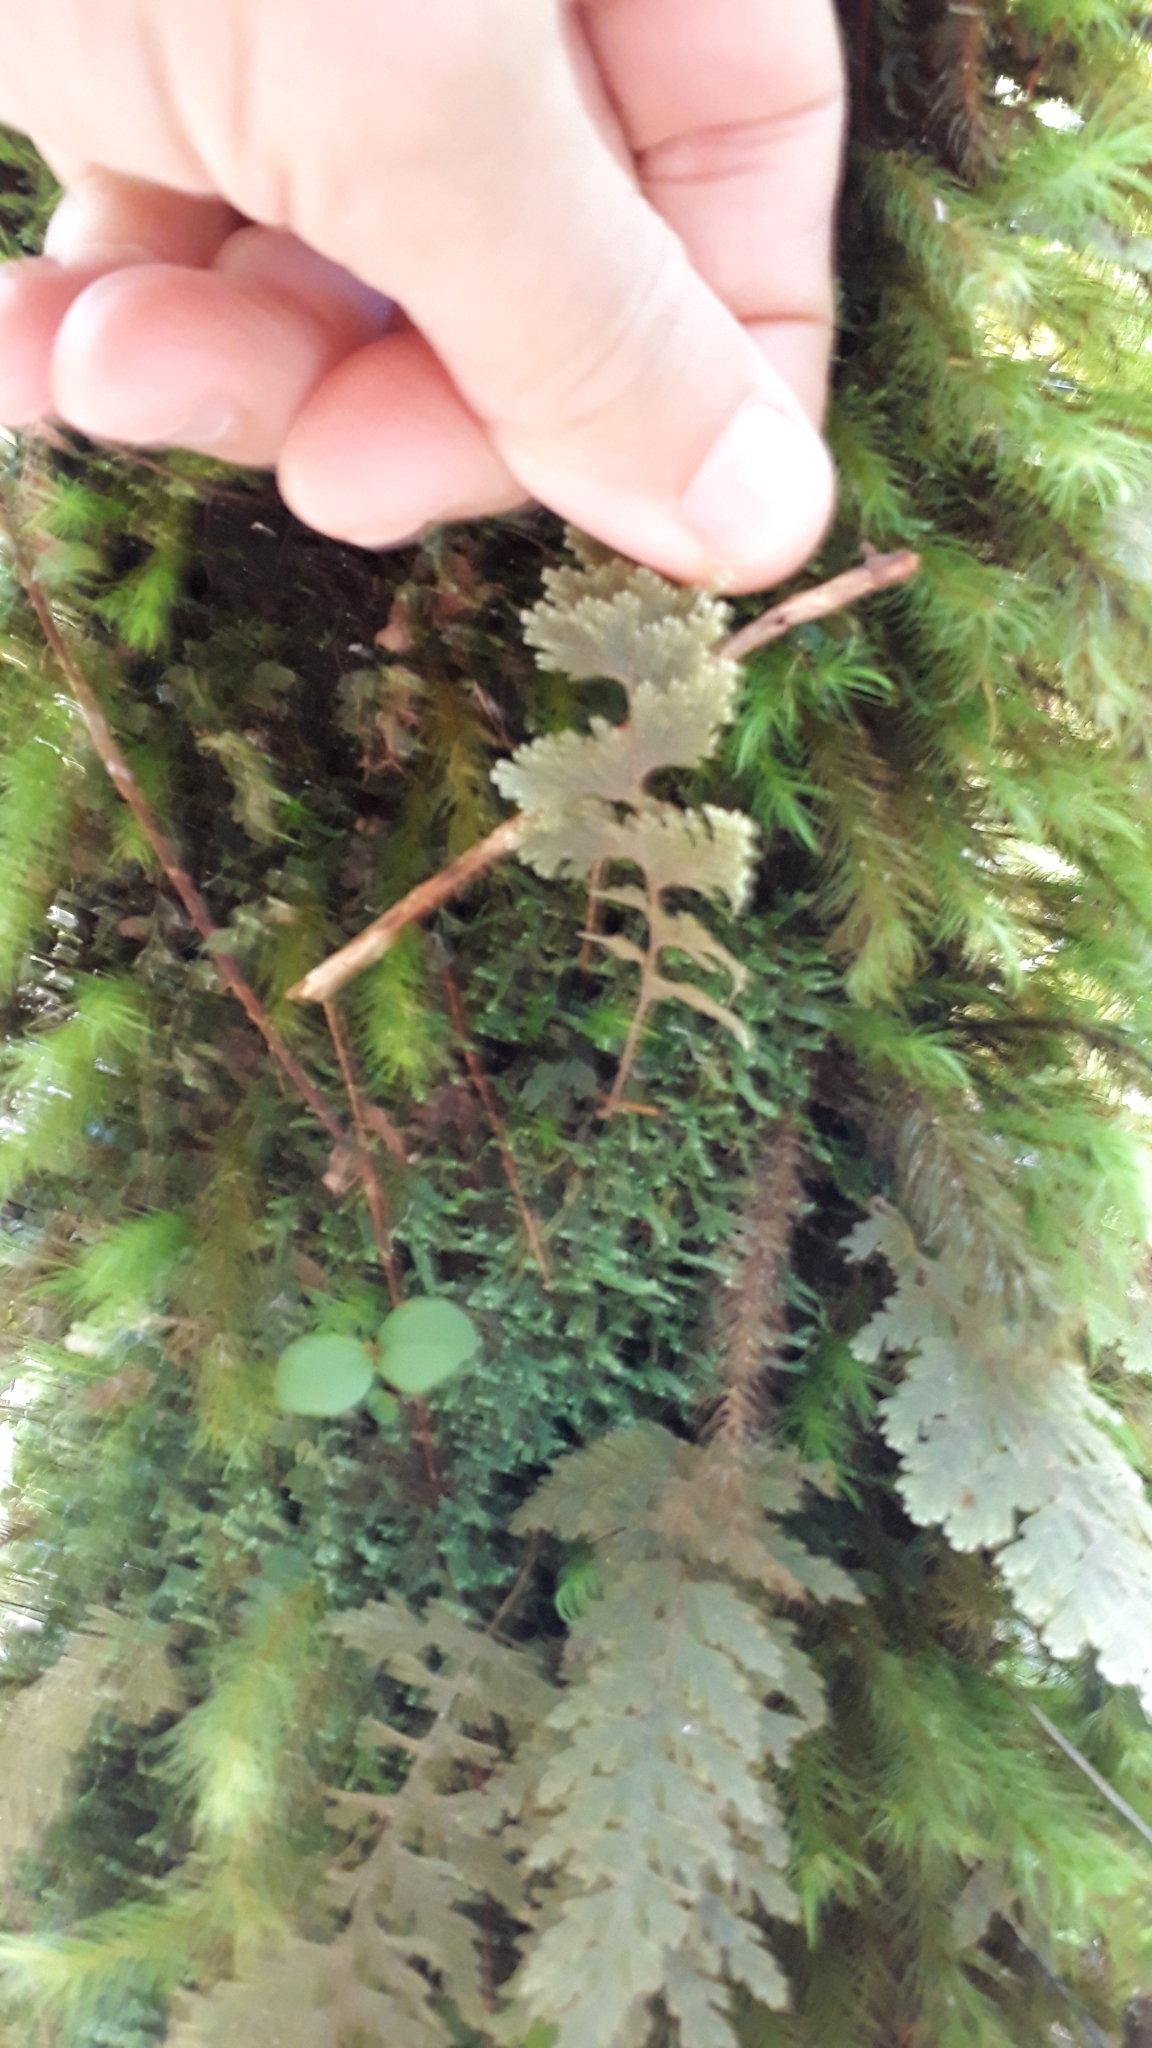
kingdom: Plantae
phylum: Tracheophyta
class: Polypodiopsida
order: Hymenophyllales
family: Hymenophyllaceae
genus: Hymenophyllum
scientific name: Hymenophyllum frankliniae
